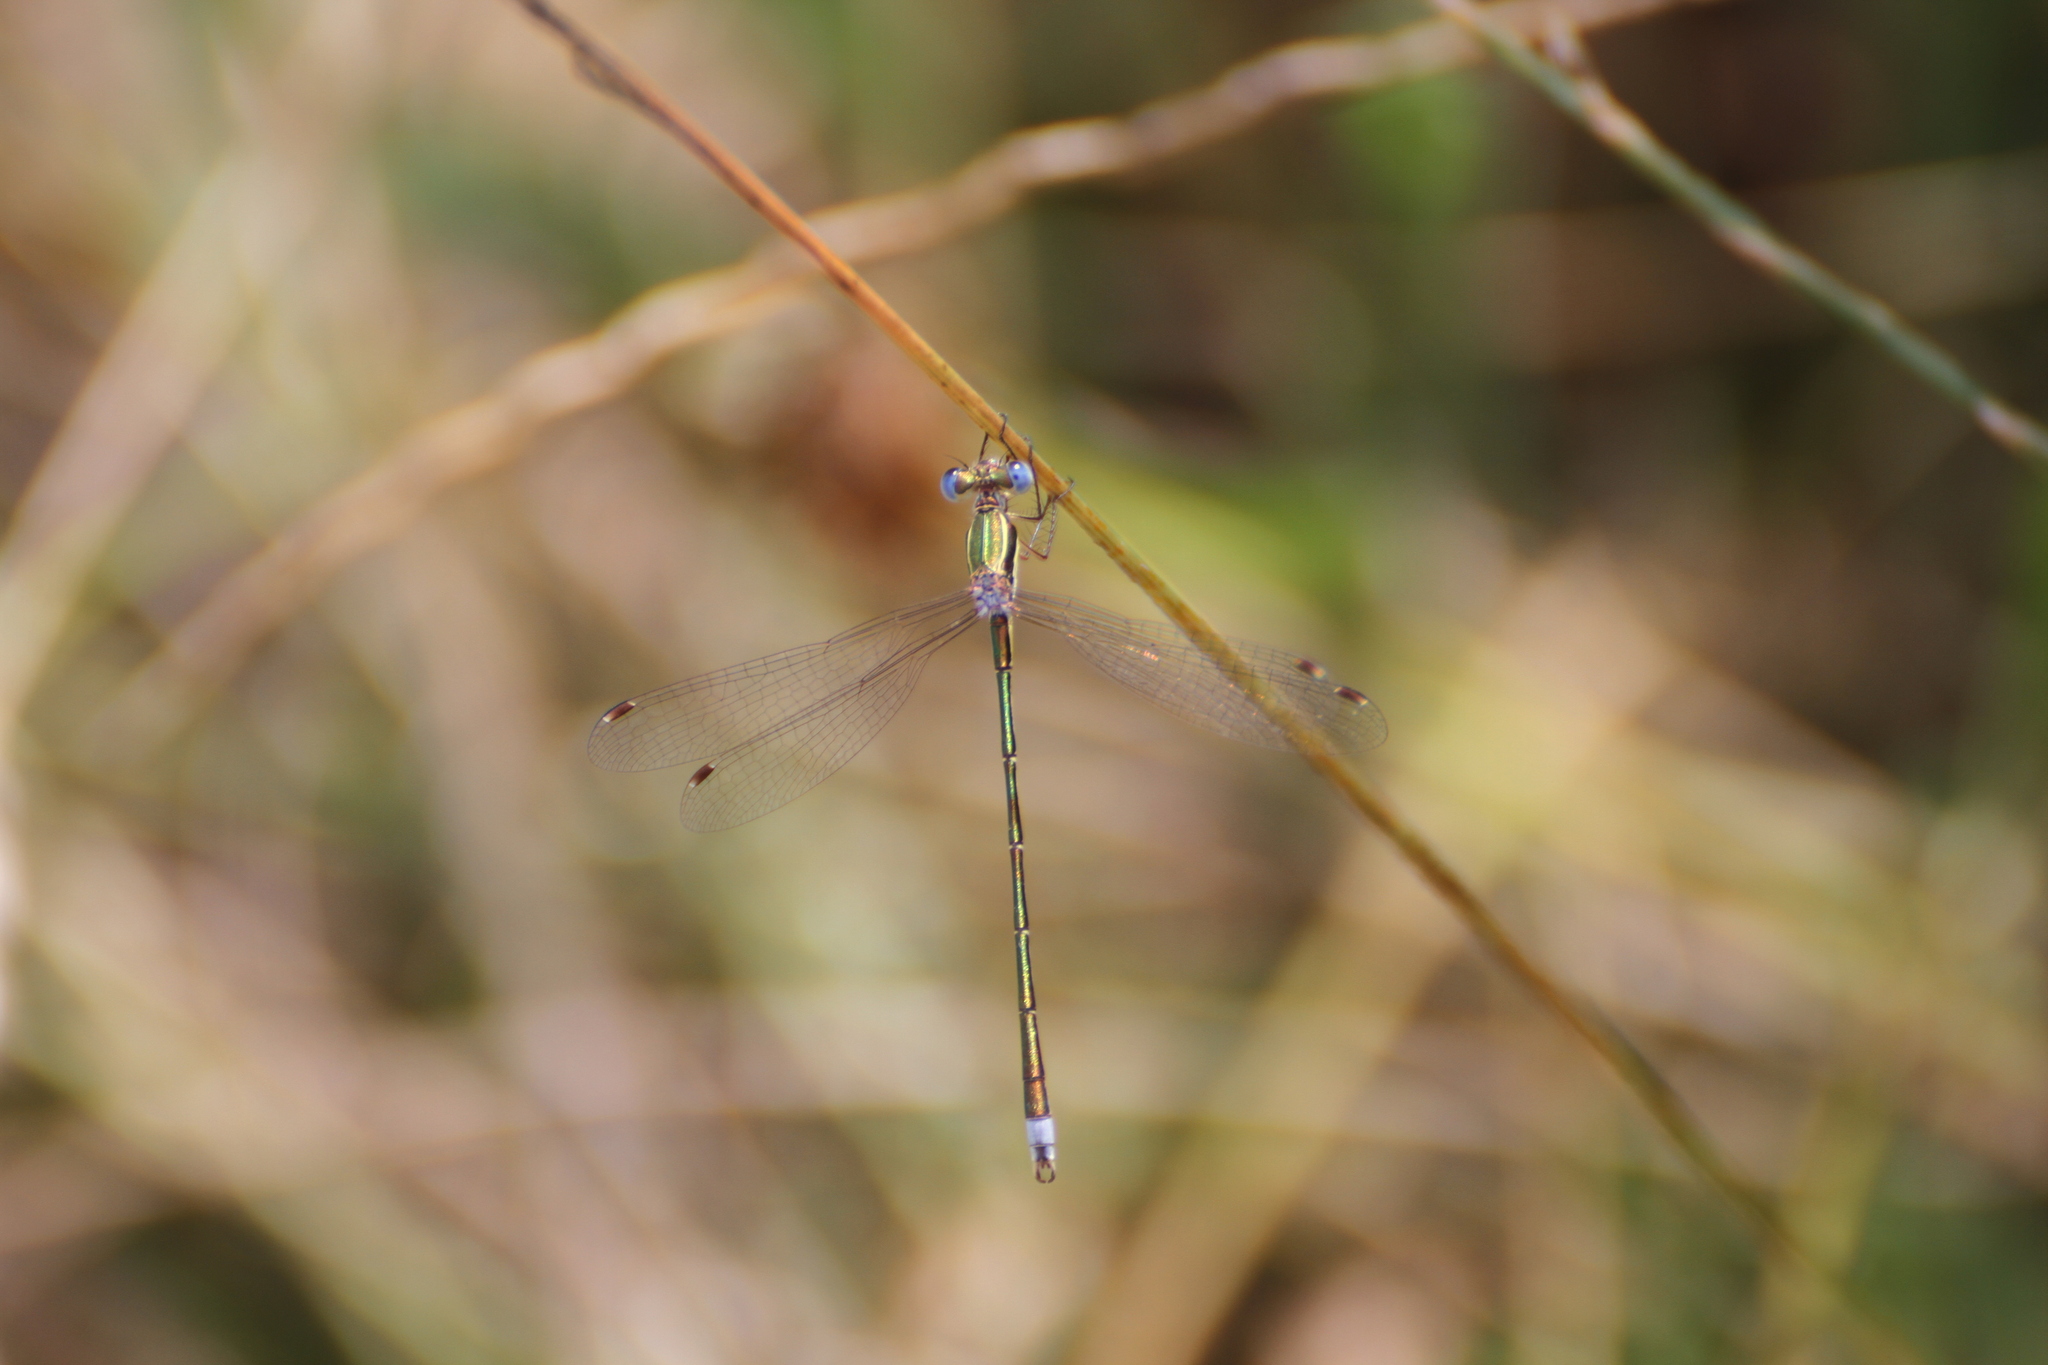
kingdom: Animalia
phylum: Arthropoda
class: Insecta
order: Odonata
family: Lestidae
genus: Lestes
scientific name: Lestes virens
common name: Small emerald spreadwing
